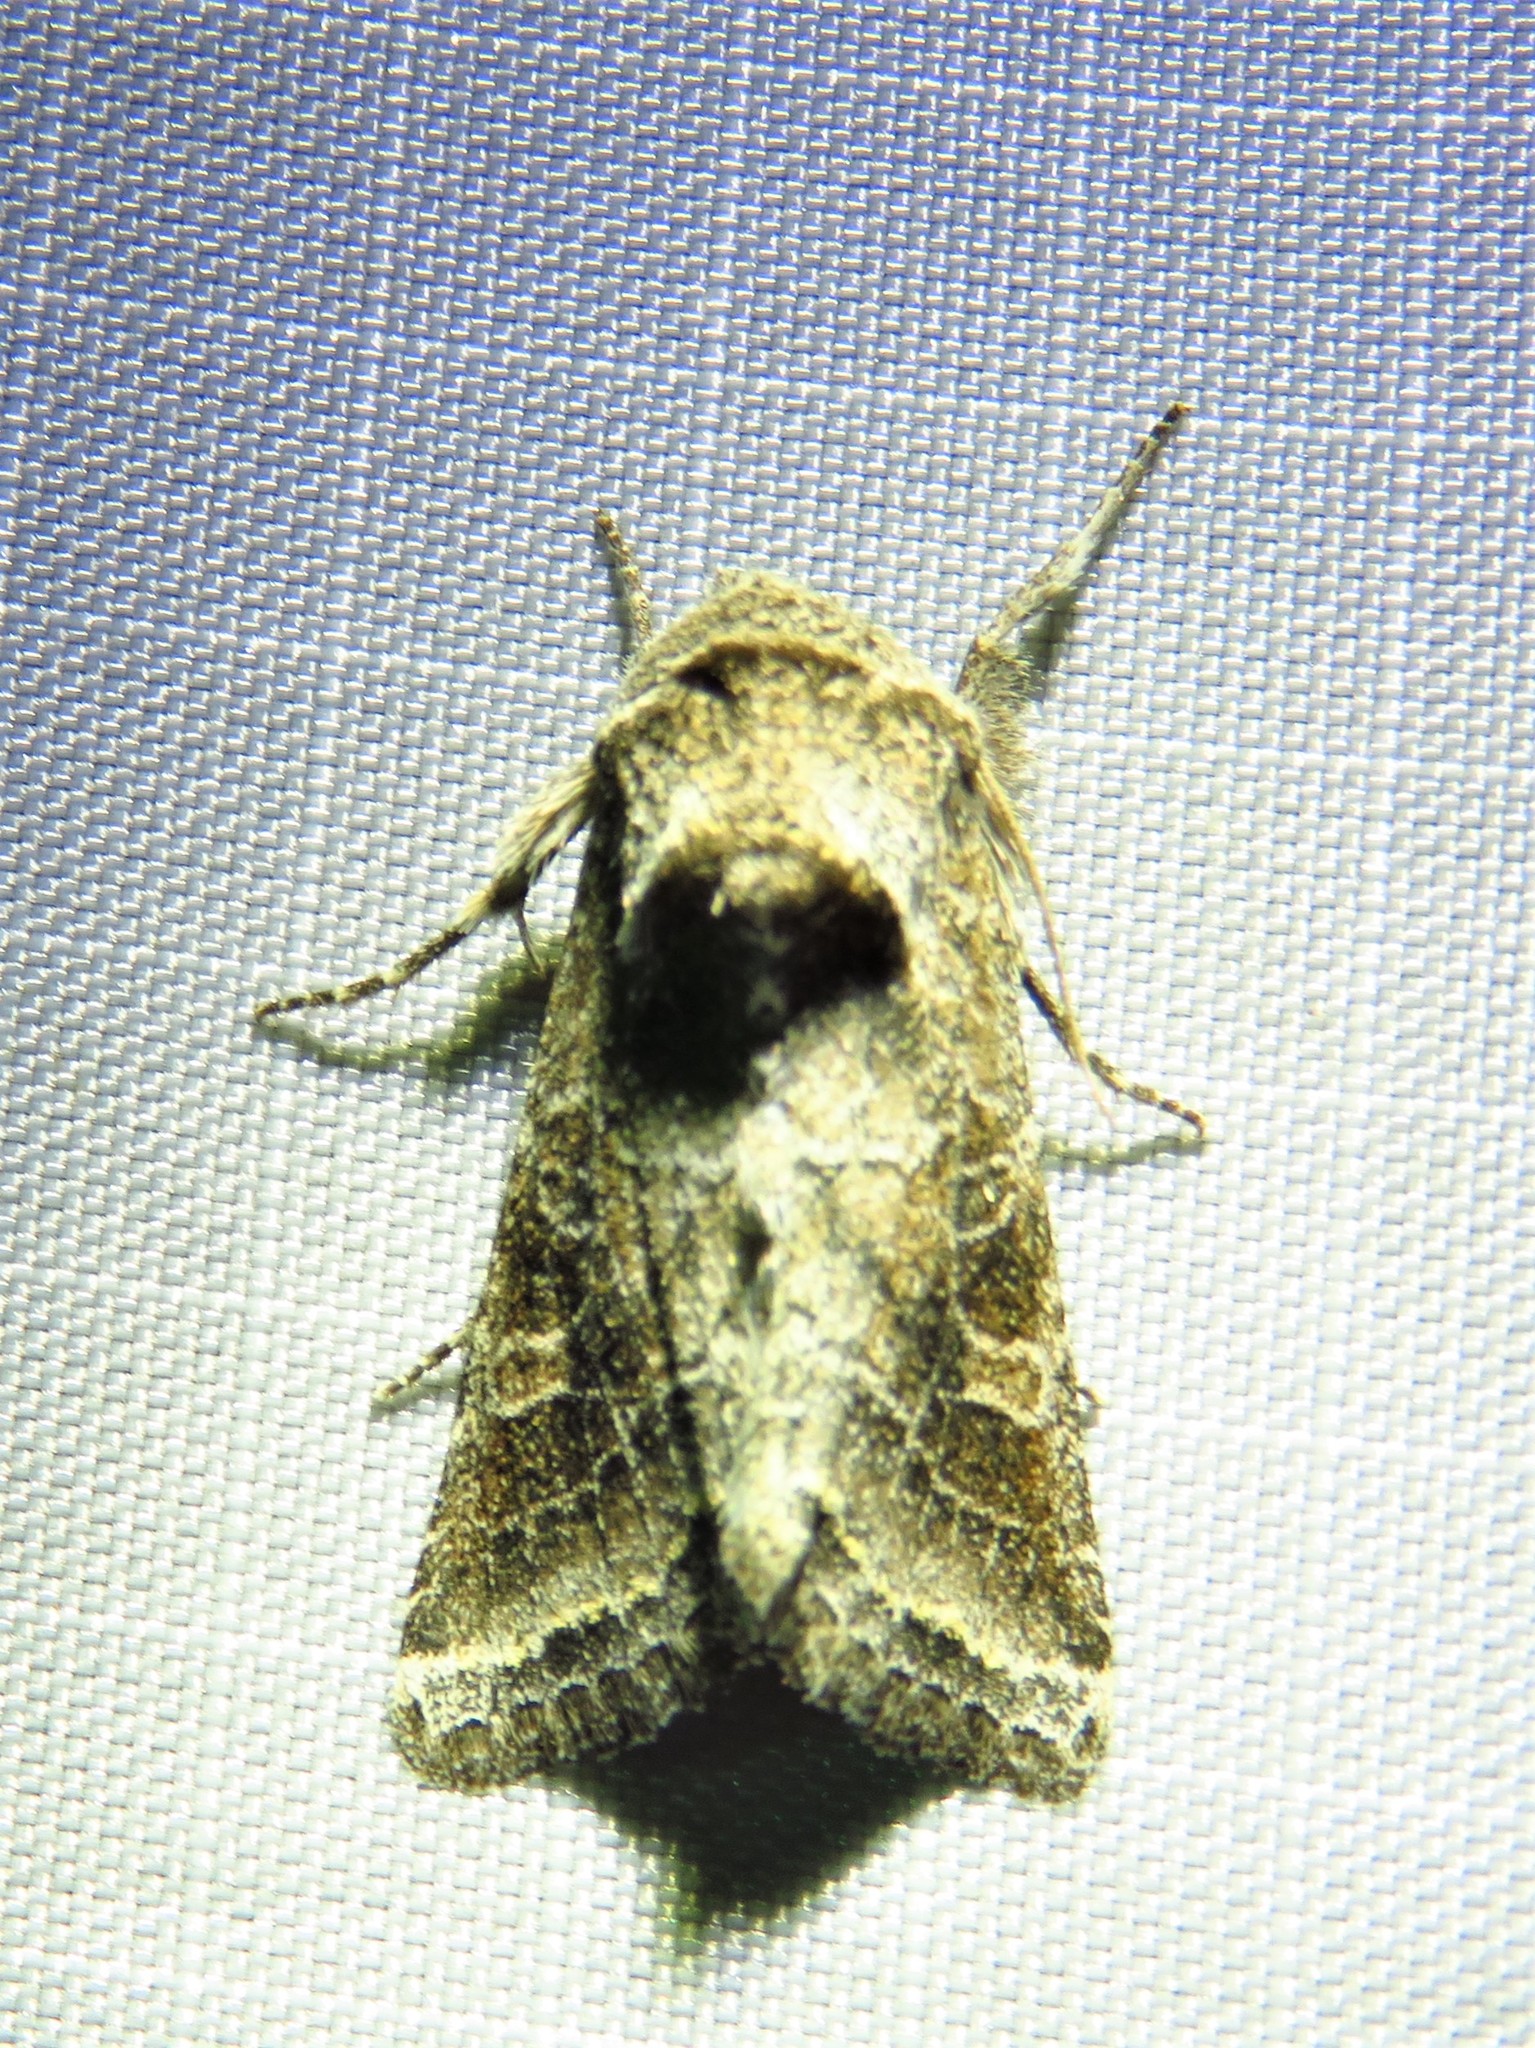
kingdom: Animalia
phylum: Arthropoda
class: Insecta
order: Lepidoptera
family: Noctuidae
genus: Lacinipolia
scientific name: Lacinipolia erecta
